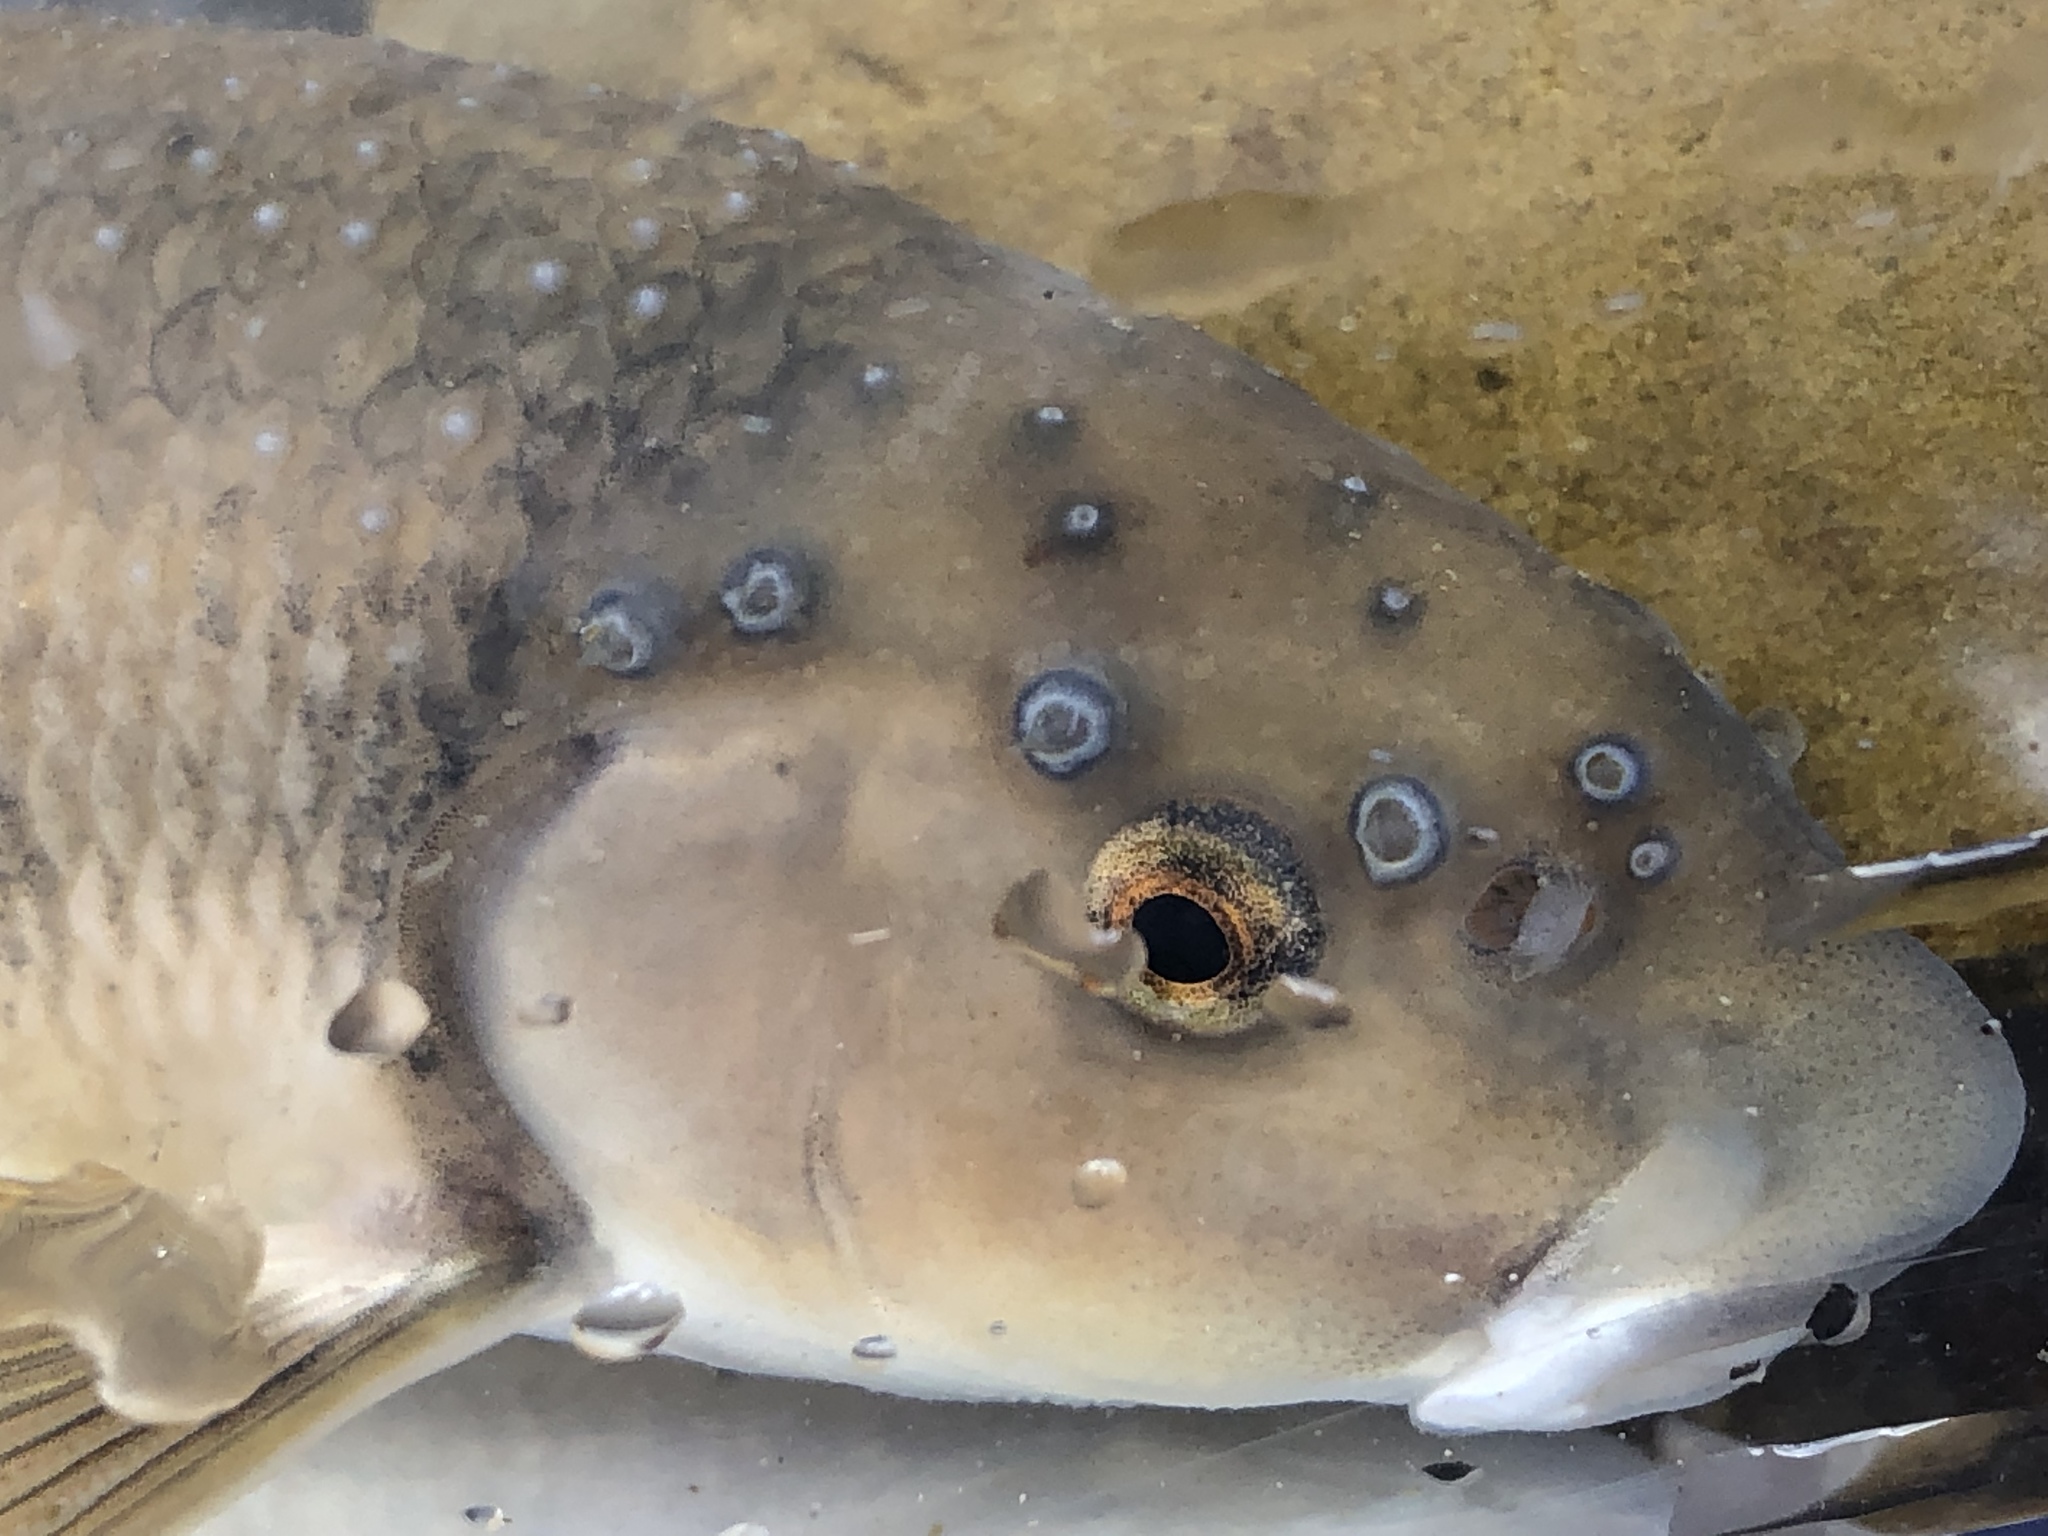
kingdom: Animalia
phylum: Chordata
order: Cypriniformes
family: Cyprinidae
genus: Campostoma
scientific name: Campostoma anomalum
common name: Central stoneroller
